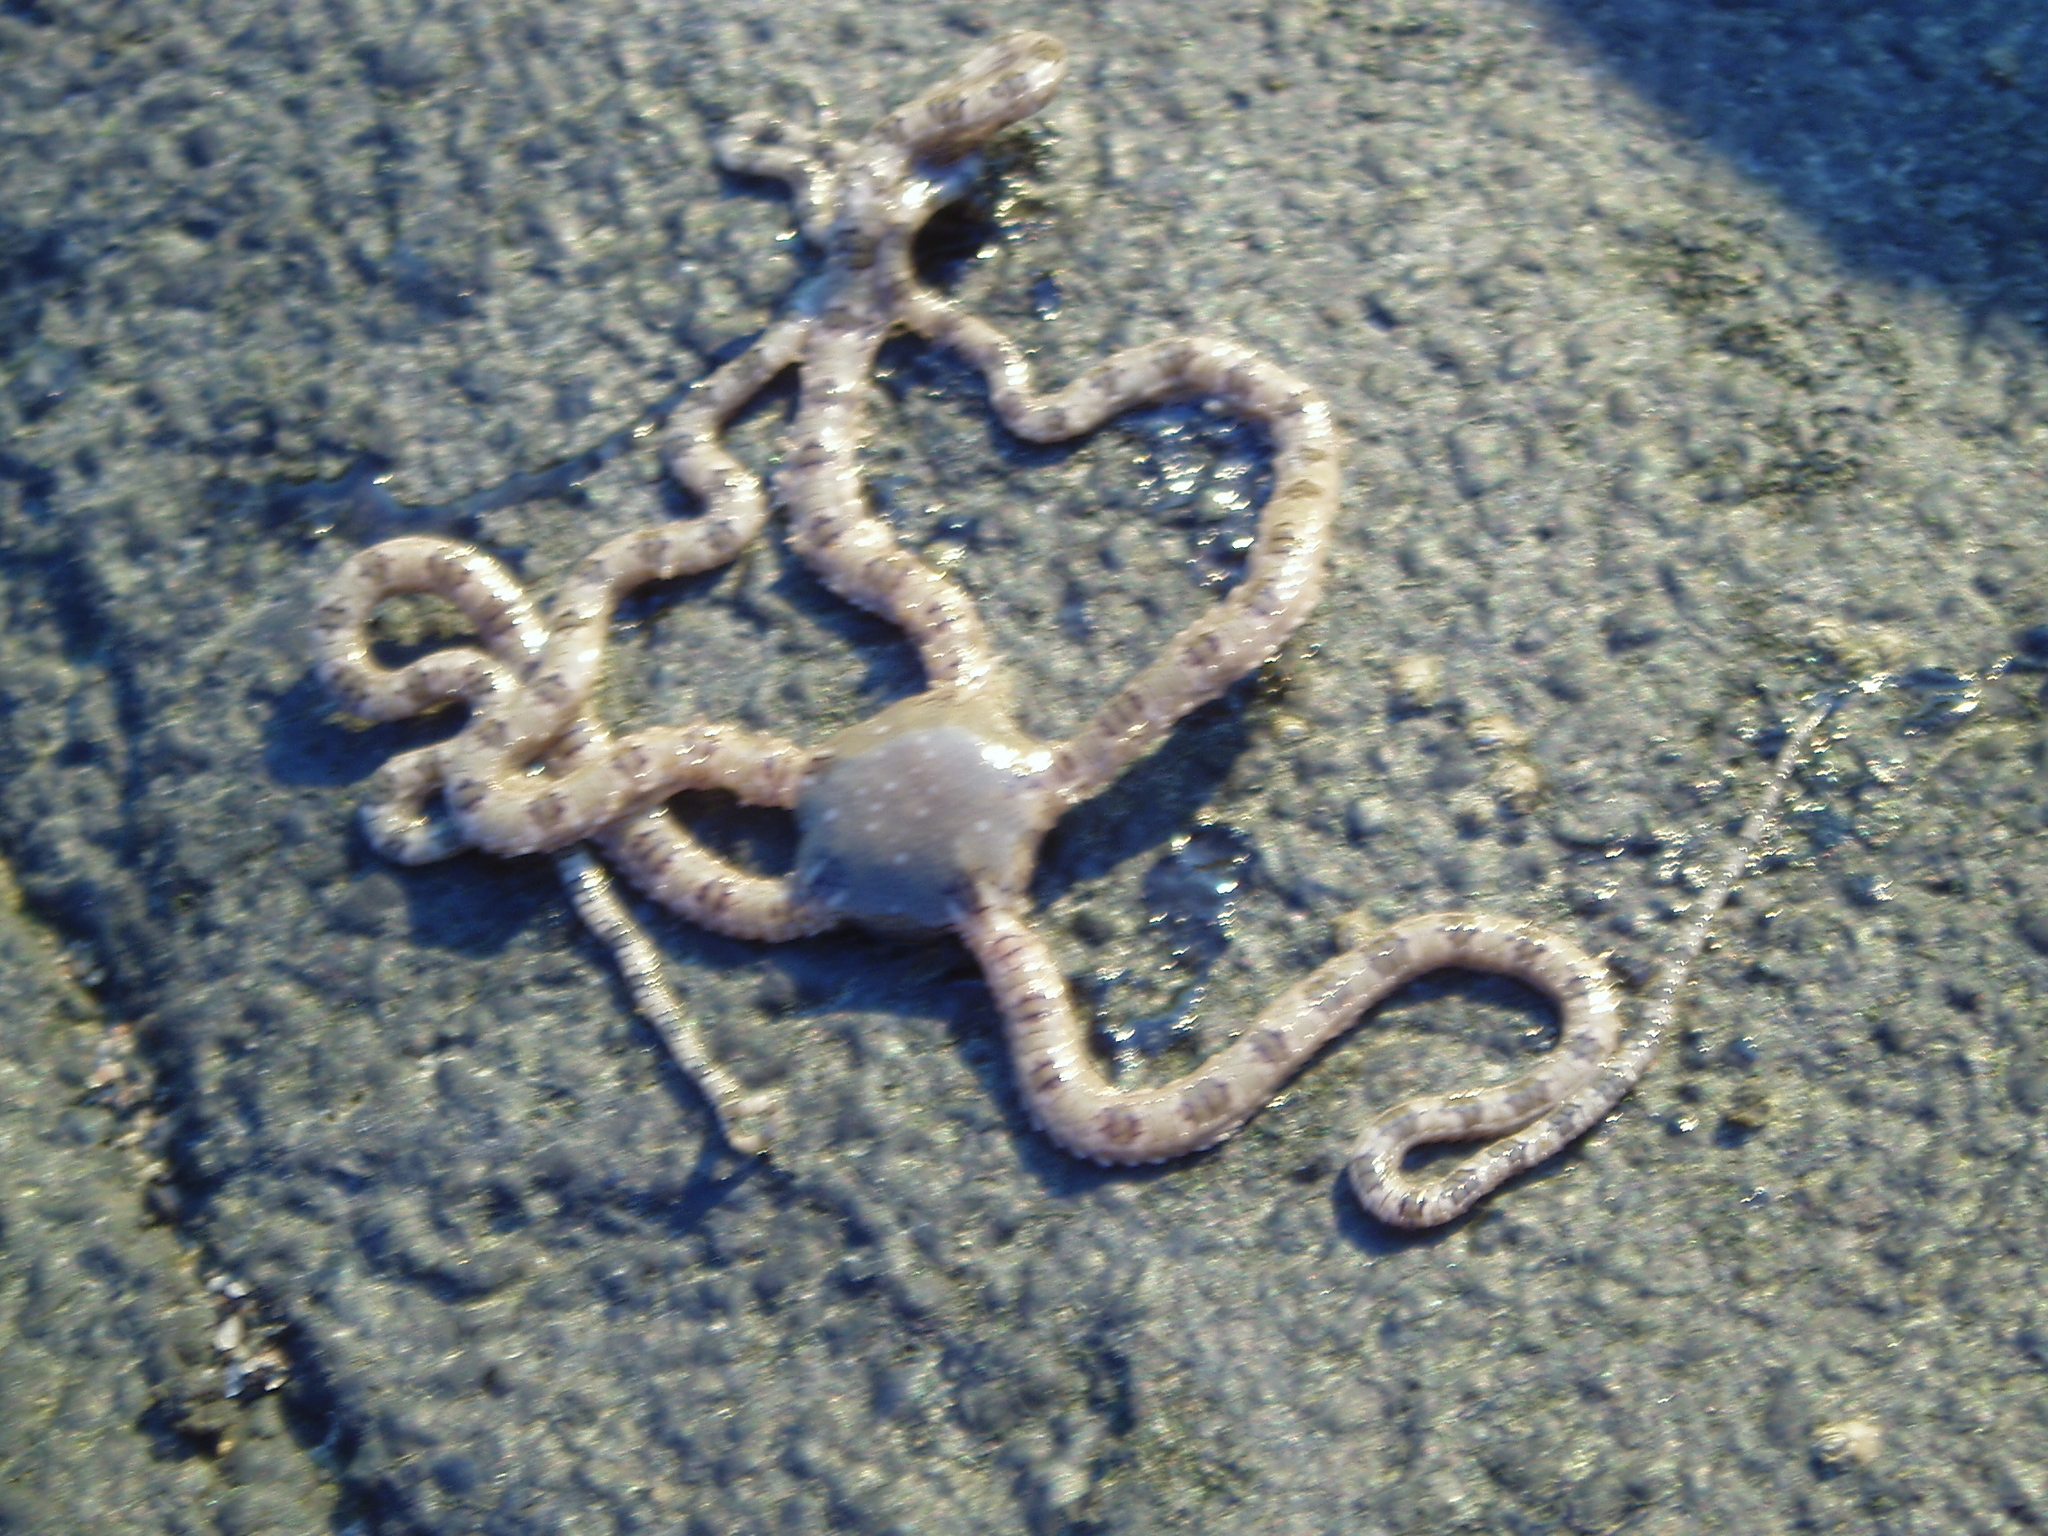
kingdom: Animalia
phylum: Echinodermata
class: Ophiuroidea
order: Amphilepidida
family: Ophionereididae
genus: Ophionereis
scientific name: Ophionereis annulata
